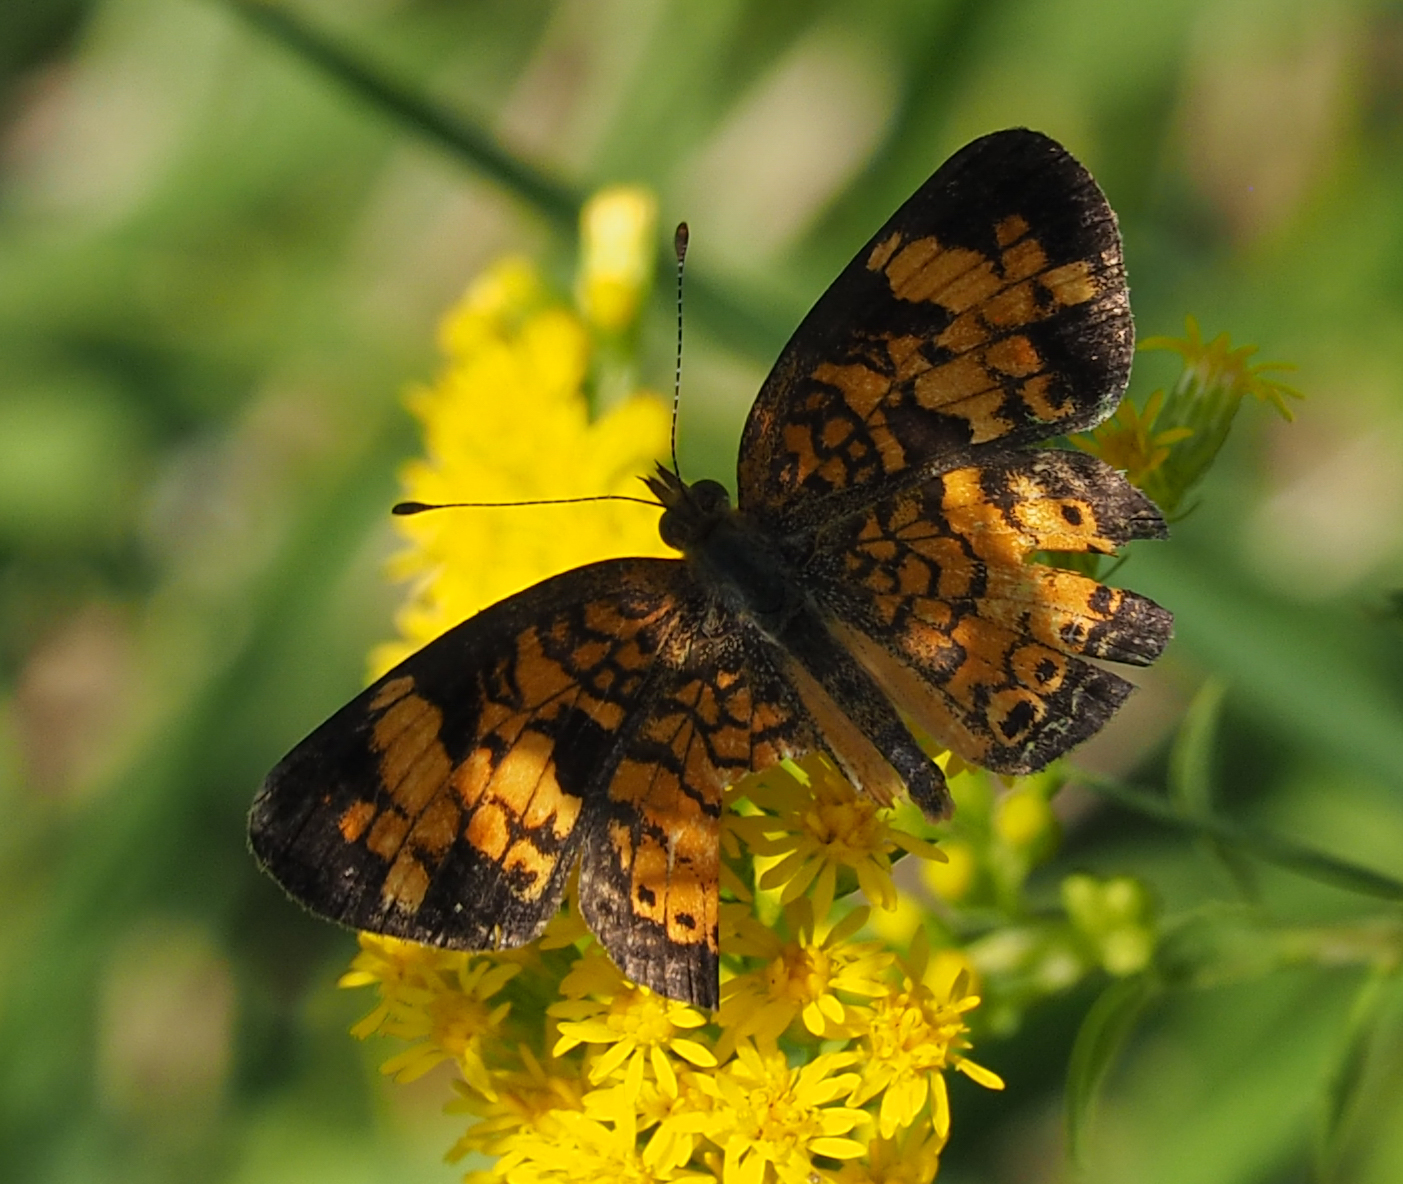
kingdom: Animalia
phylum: Arthropoda
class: Insecta
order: Lepidoptera
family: Nymphalidae
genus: Phyciodes
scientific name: Phyciodes tharos
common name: Pearl crescent
